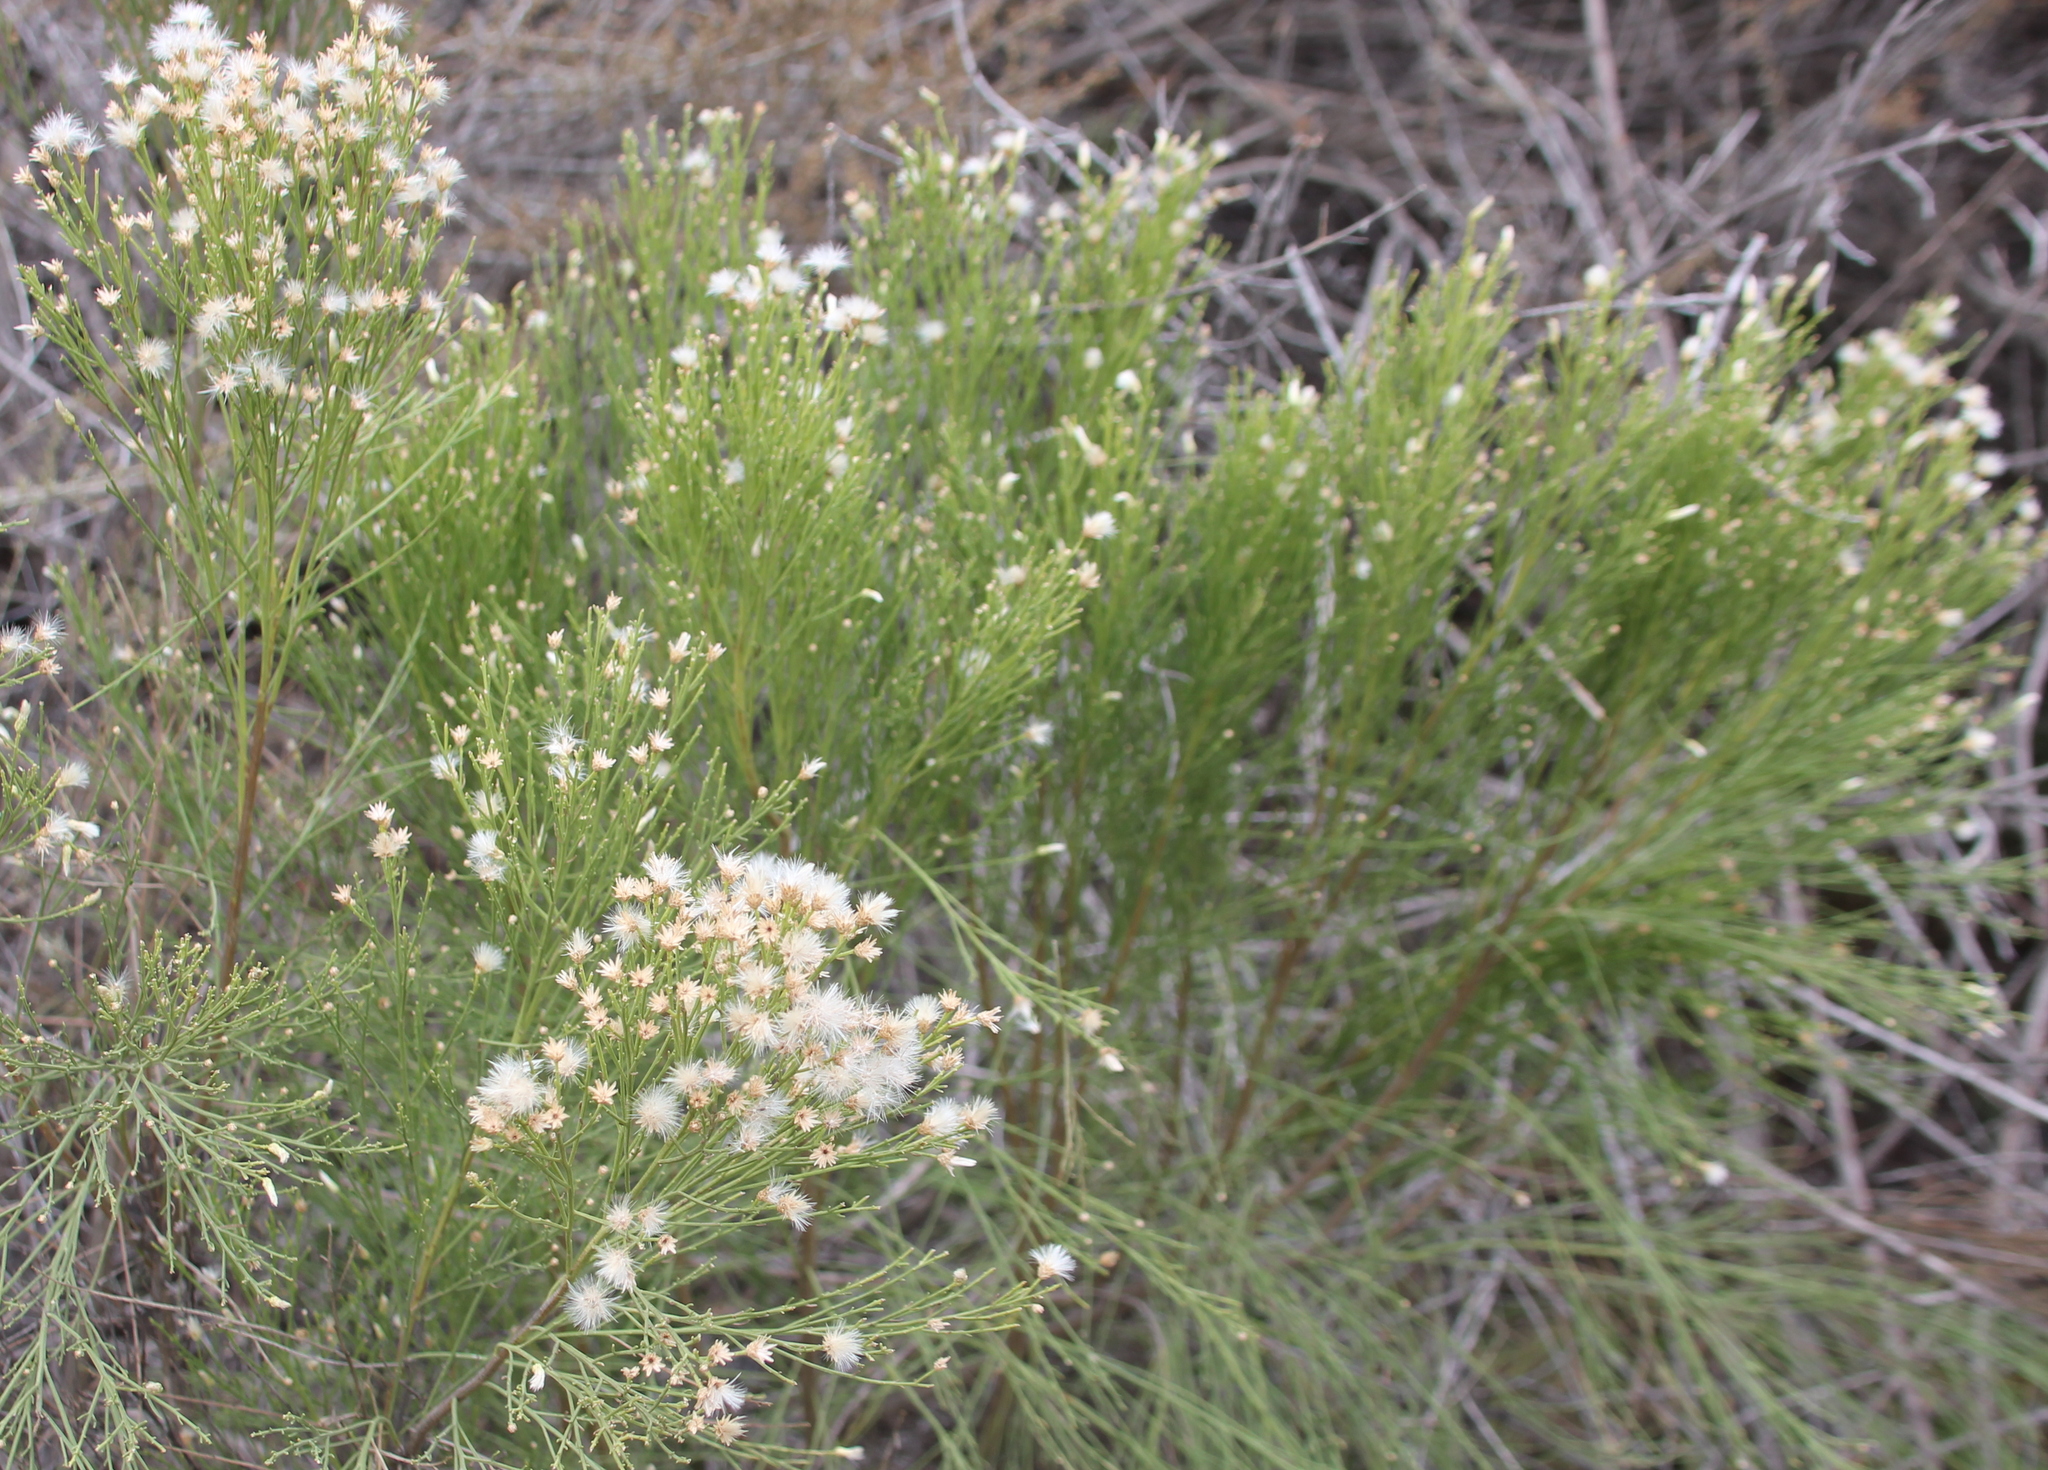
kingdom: Plantae
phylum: Tracheophyta
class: Magnoliopsida
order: Asterales
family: Asteraceae
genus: Baccharis
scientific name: Baccharis sarothroides
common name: Desert-broom
